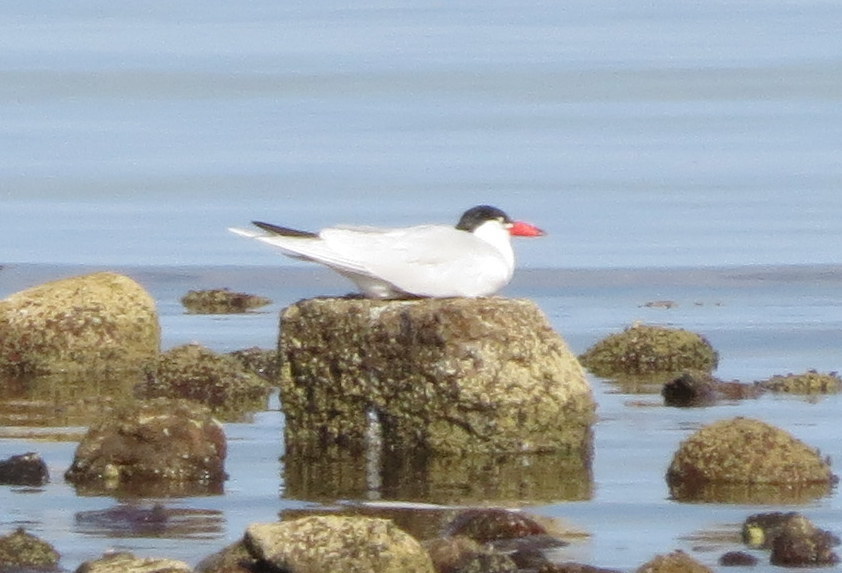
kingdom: Animalia
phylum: Chordata
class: Aves
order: Charadriiformes
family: Laridae
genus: Hydroprogne
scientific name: Hydroprogne caspia
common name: Caspian tern
